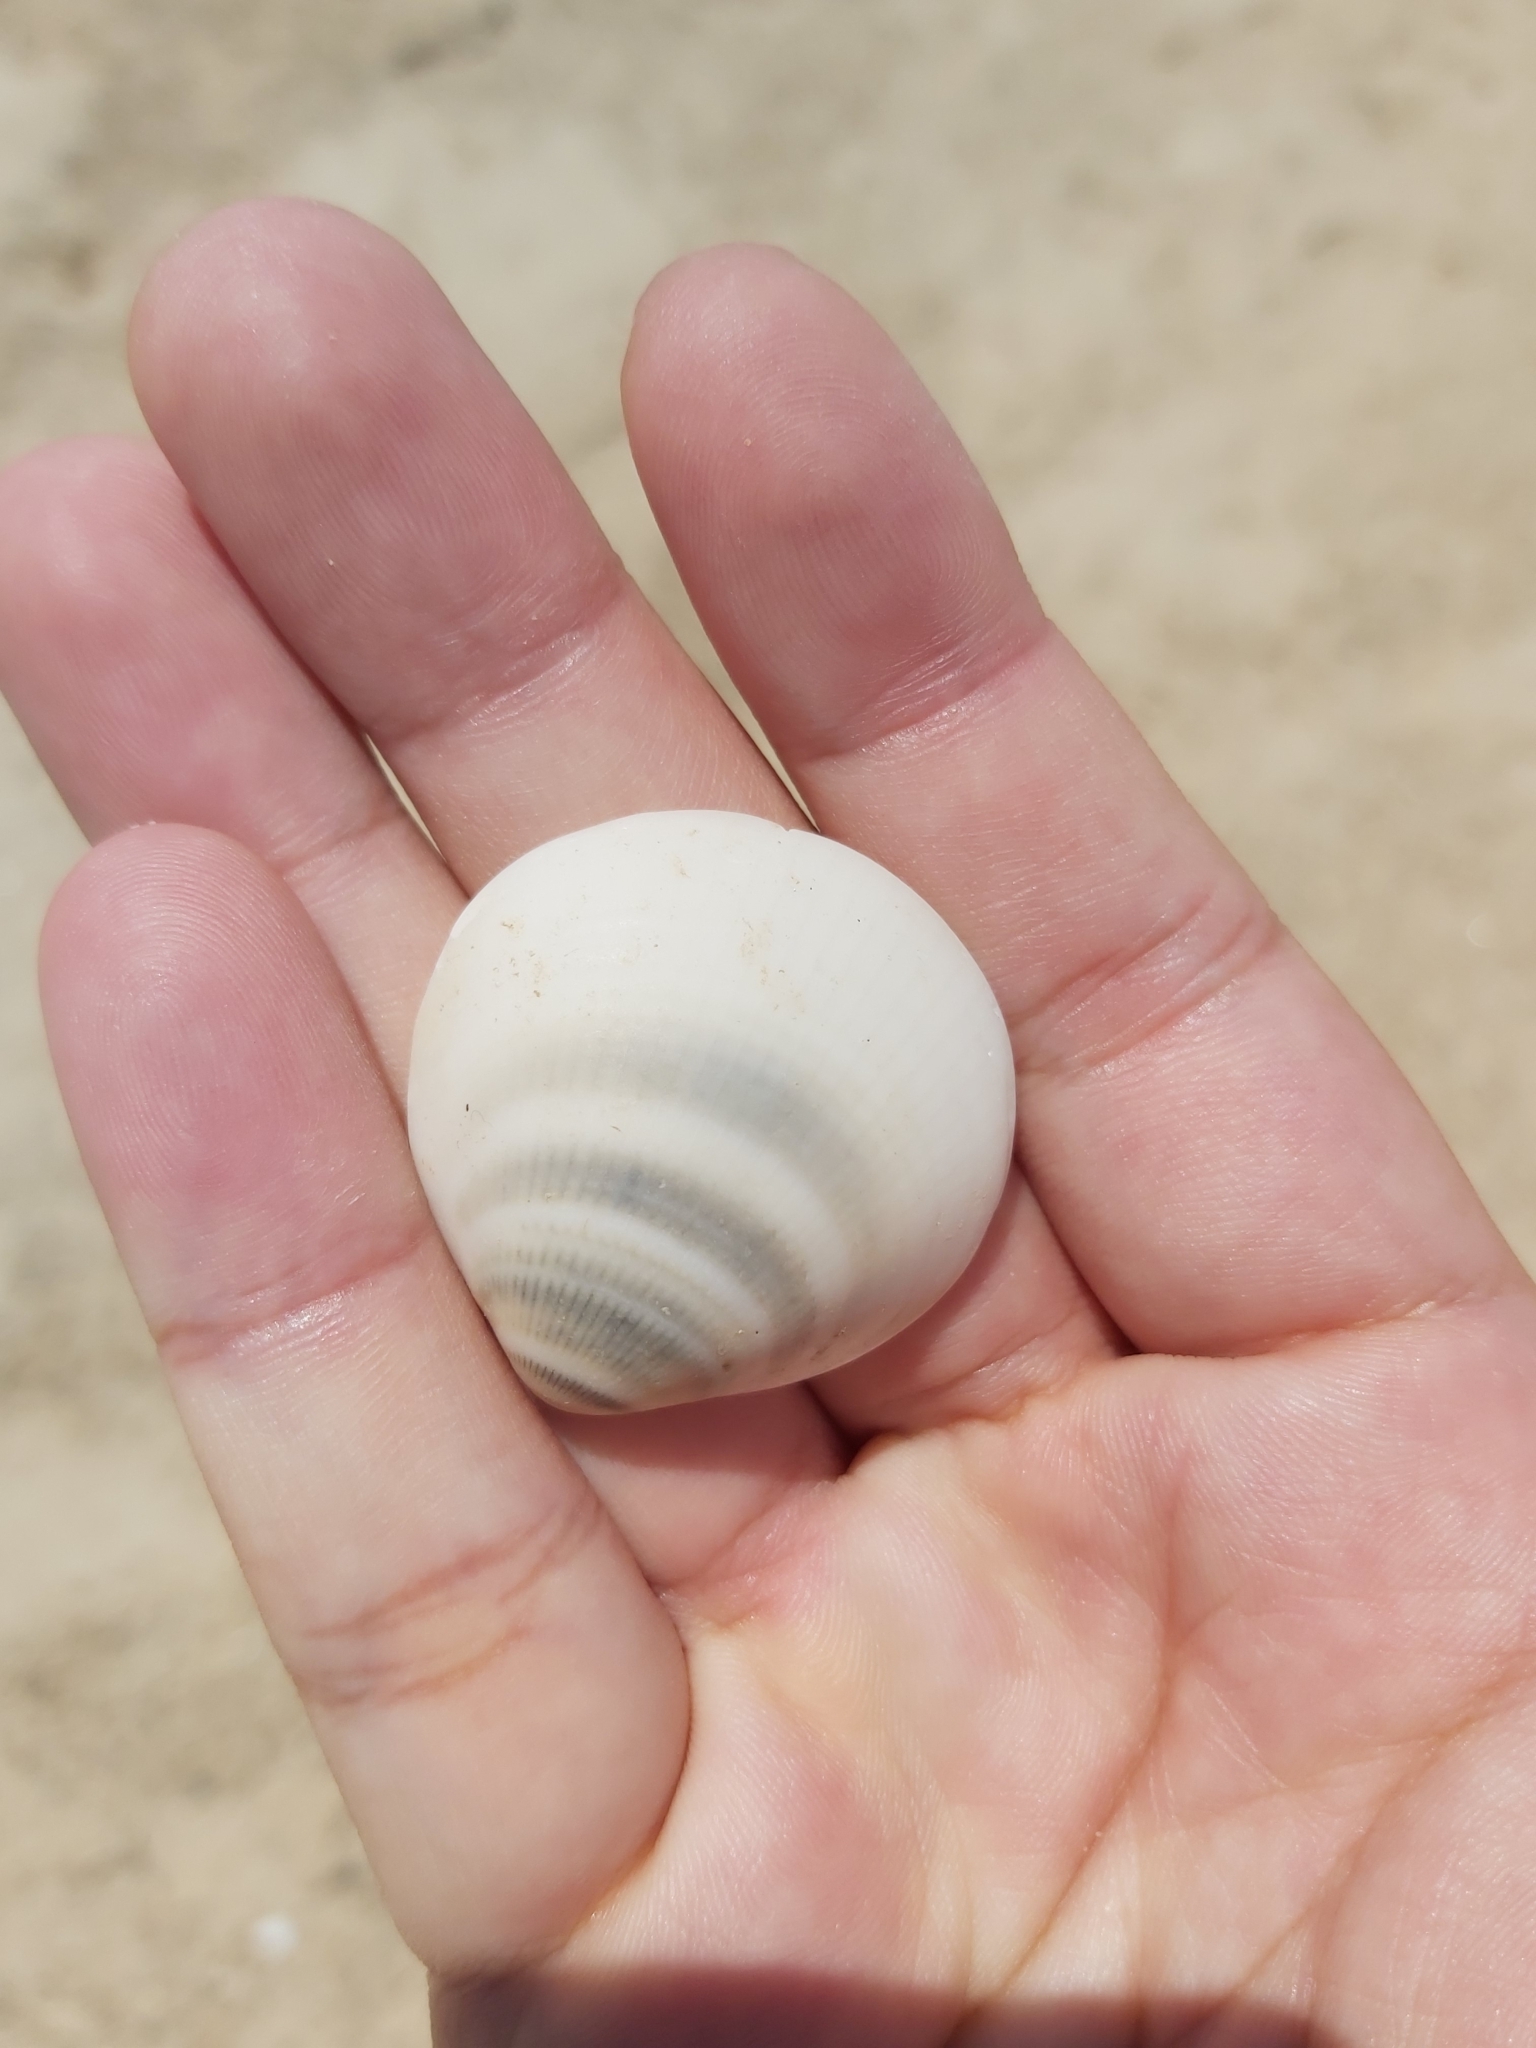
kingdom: Animalia
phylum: Mollusca
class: Bivalvia
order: Arcida
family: Glycymerididae
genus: Glycymeris
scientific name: Glycymeris grayana
